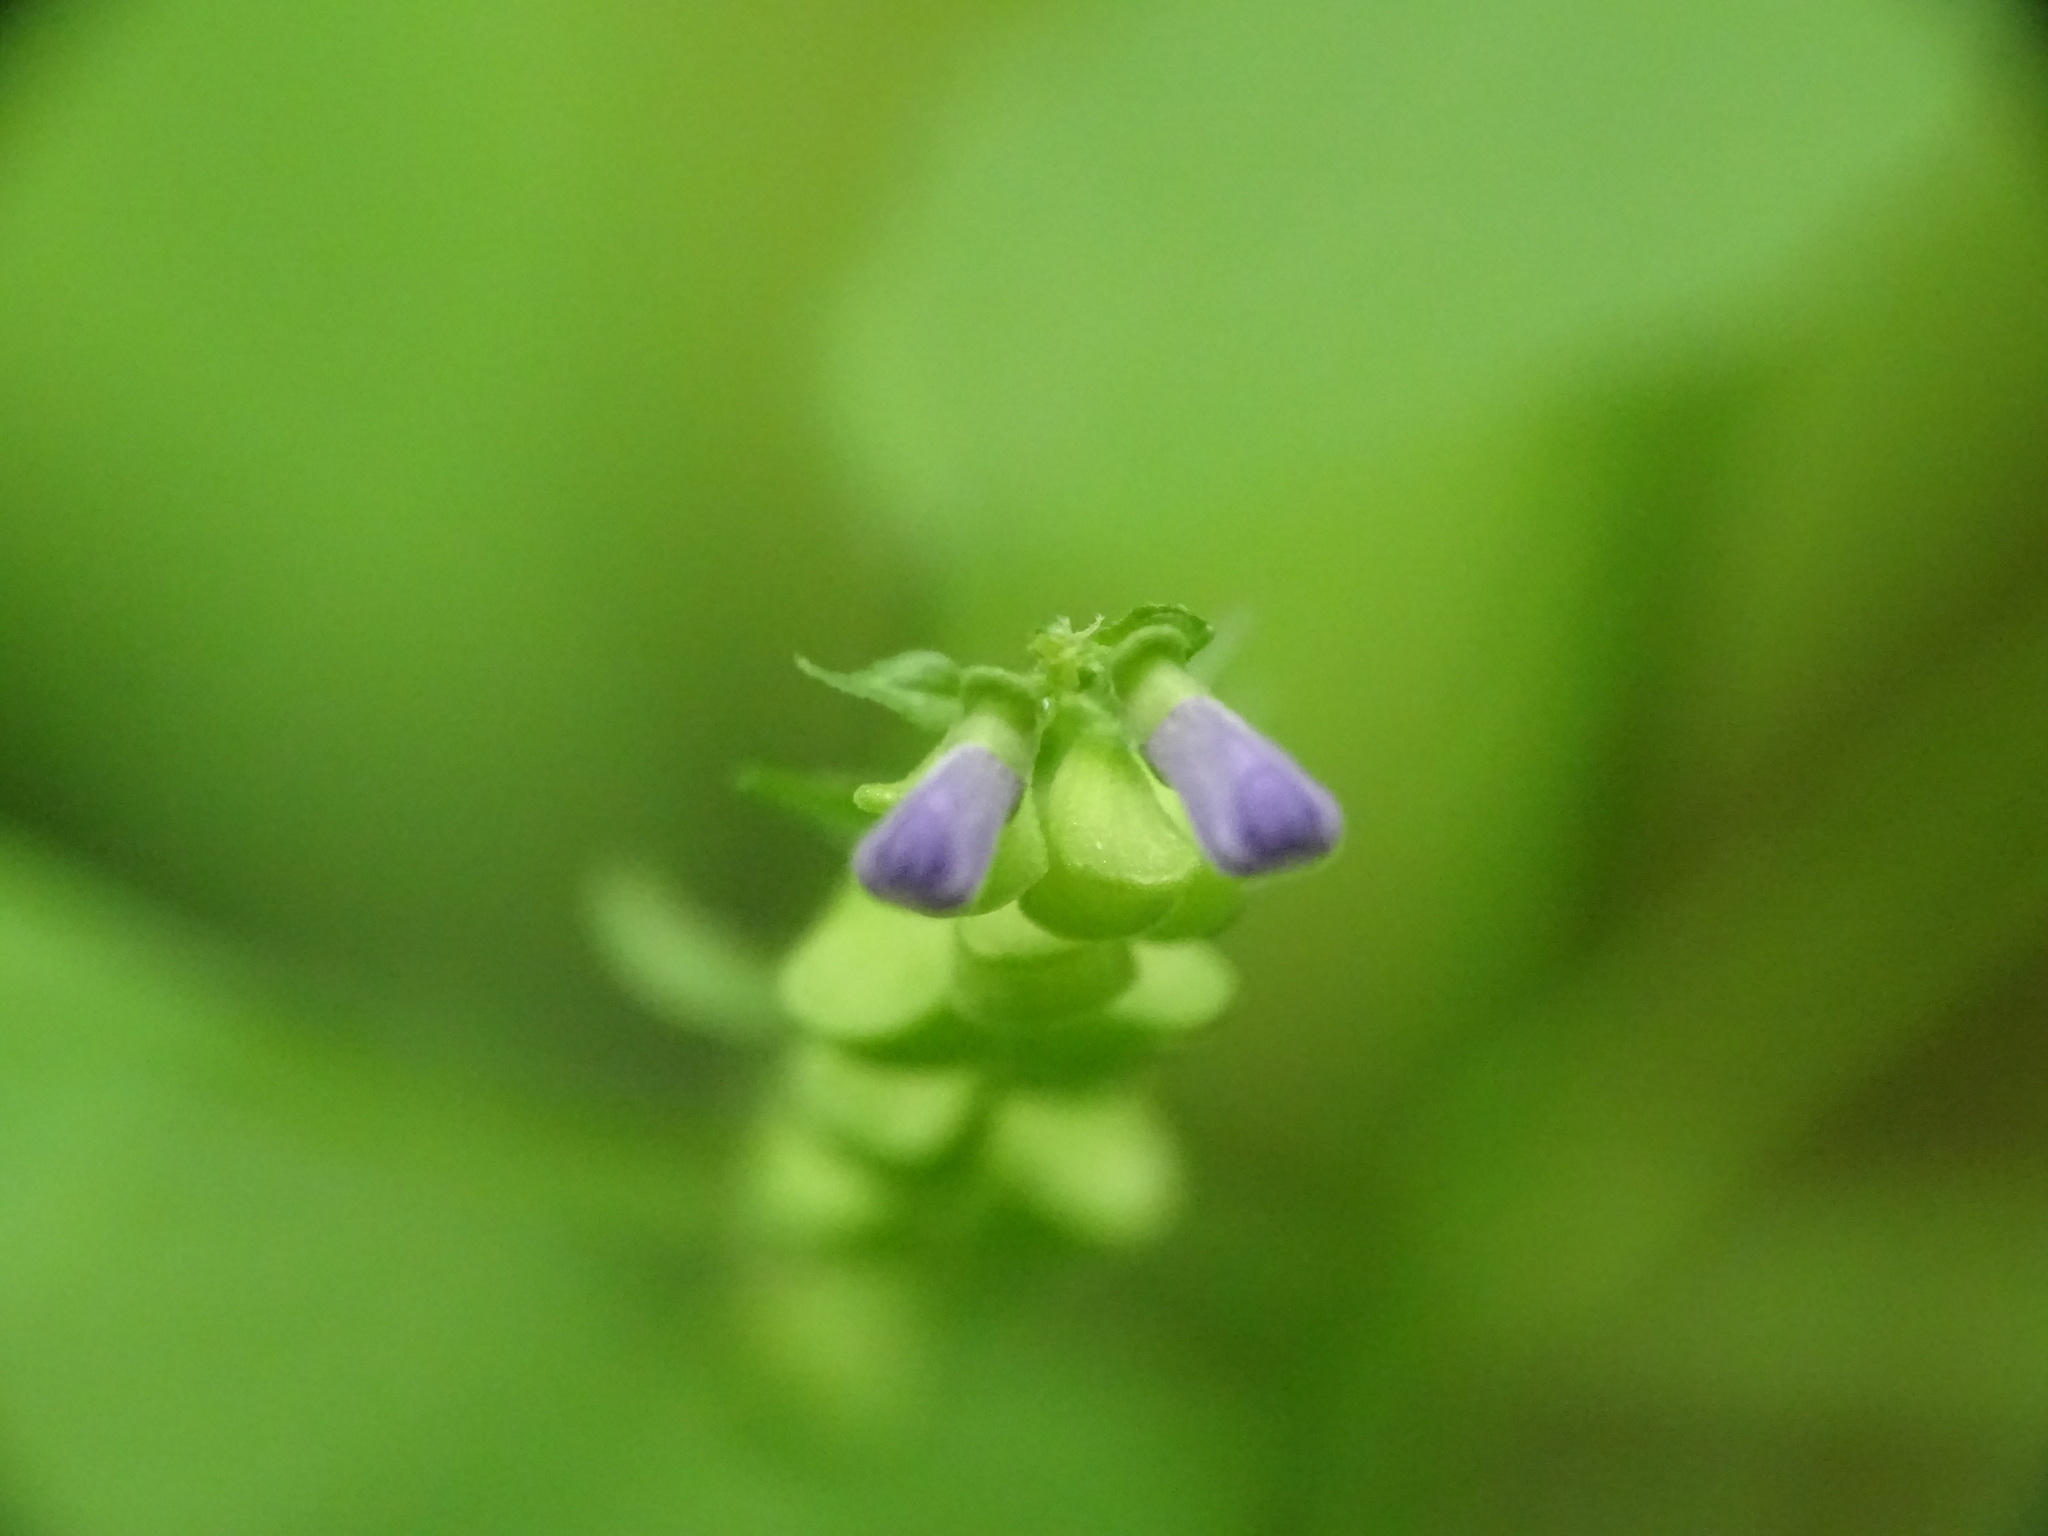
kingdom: Plantae
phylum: Tracheophyta
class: Magnoliopsida
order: Lamiales
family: Lamiaceae
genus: Scutellaria
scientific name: Scutellaria lateriflora
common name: Blue skullcap
